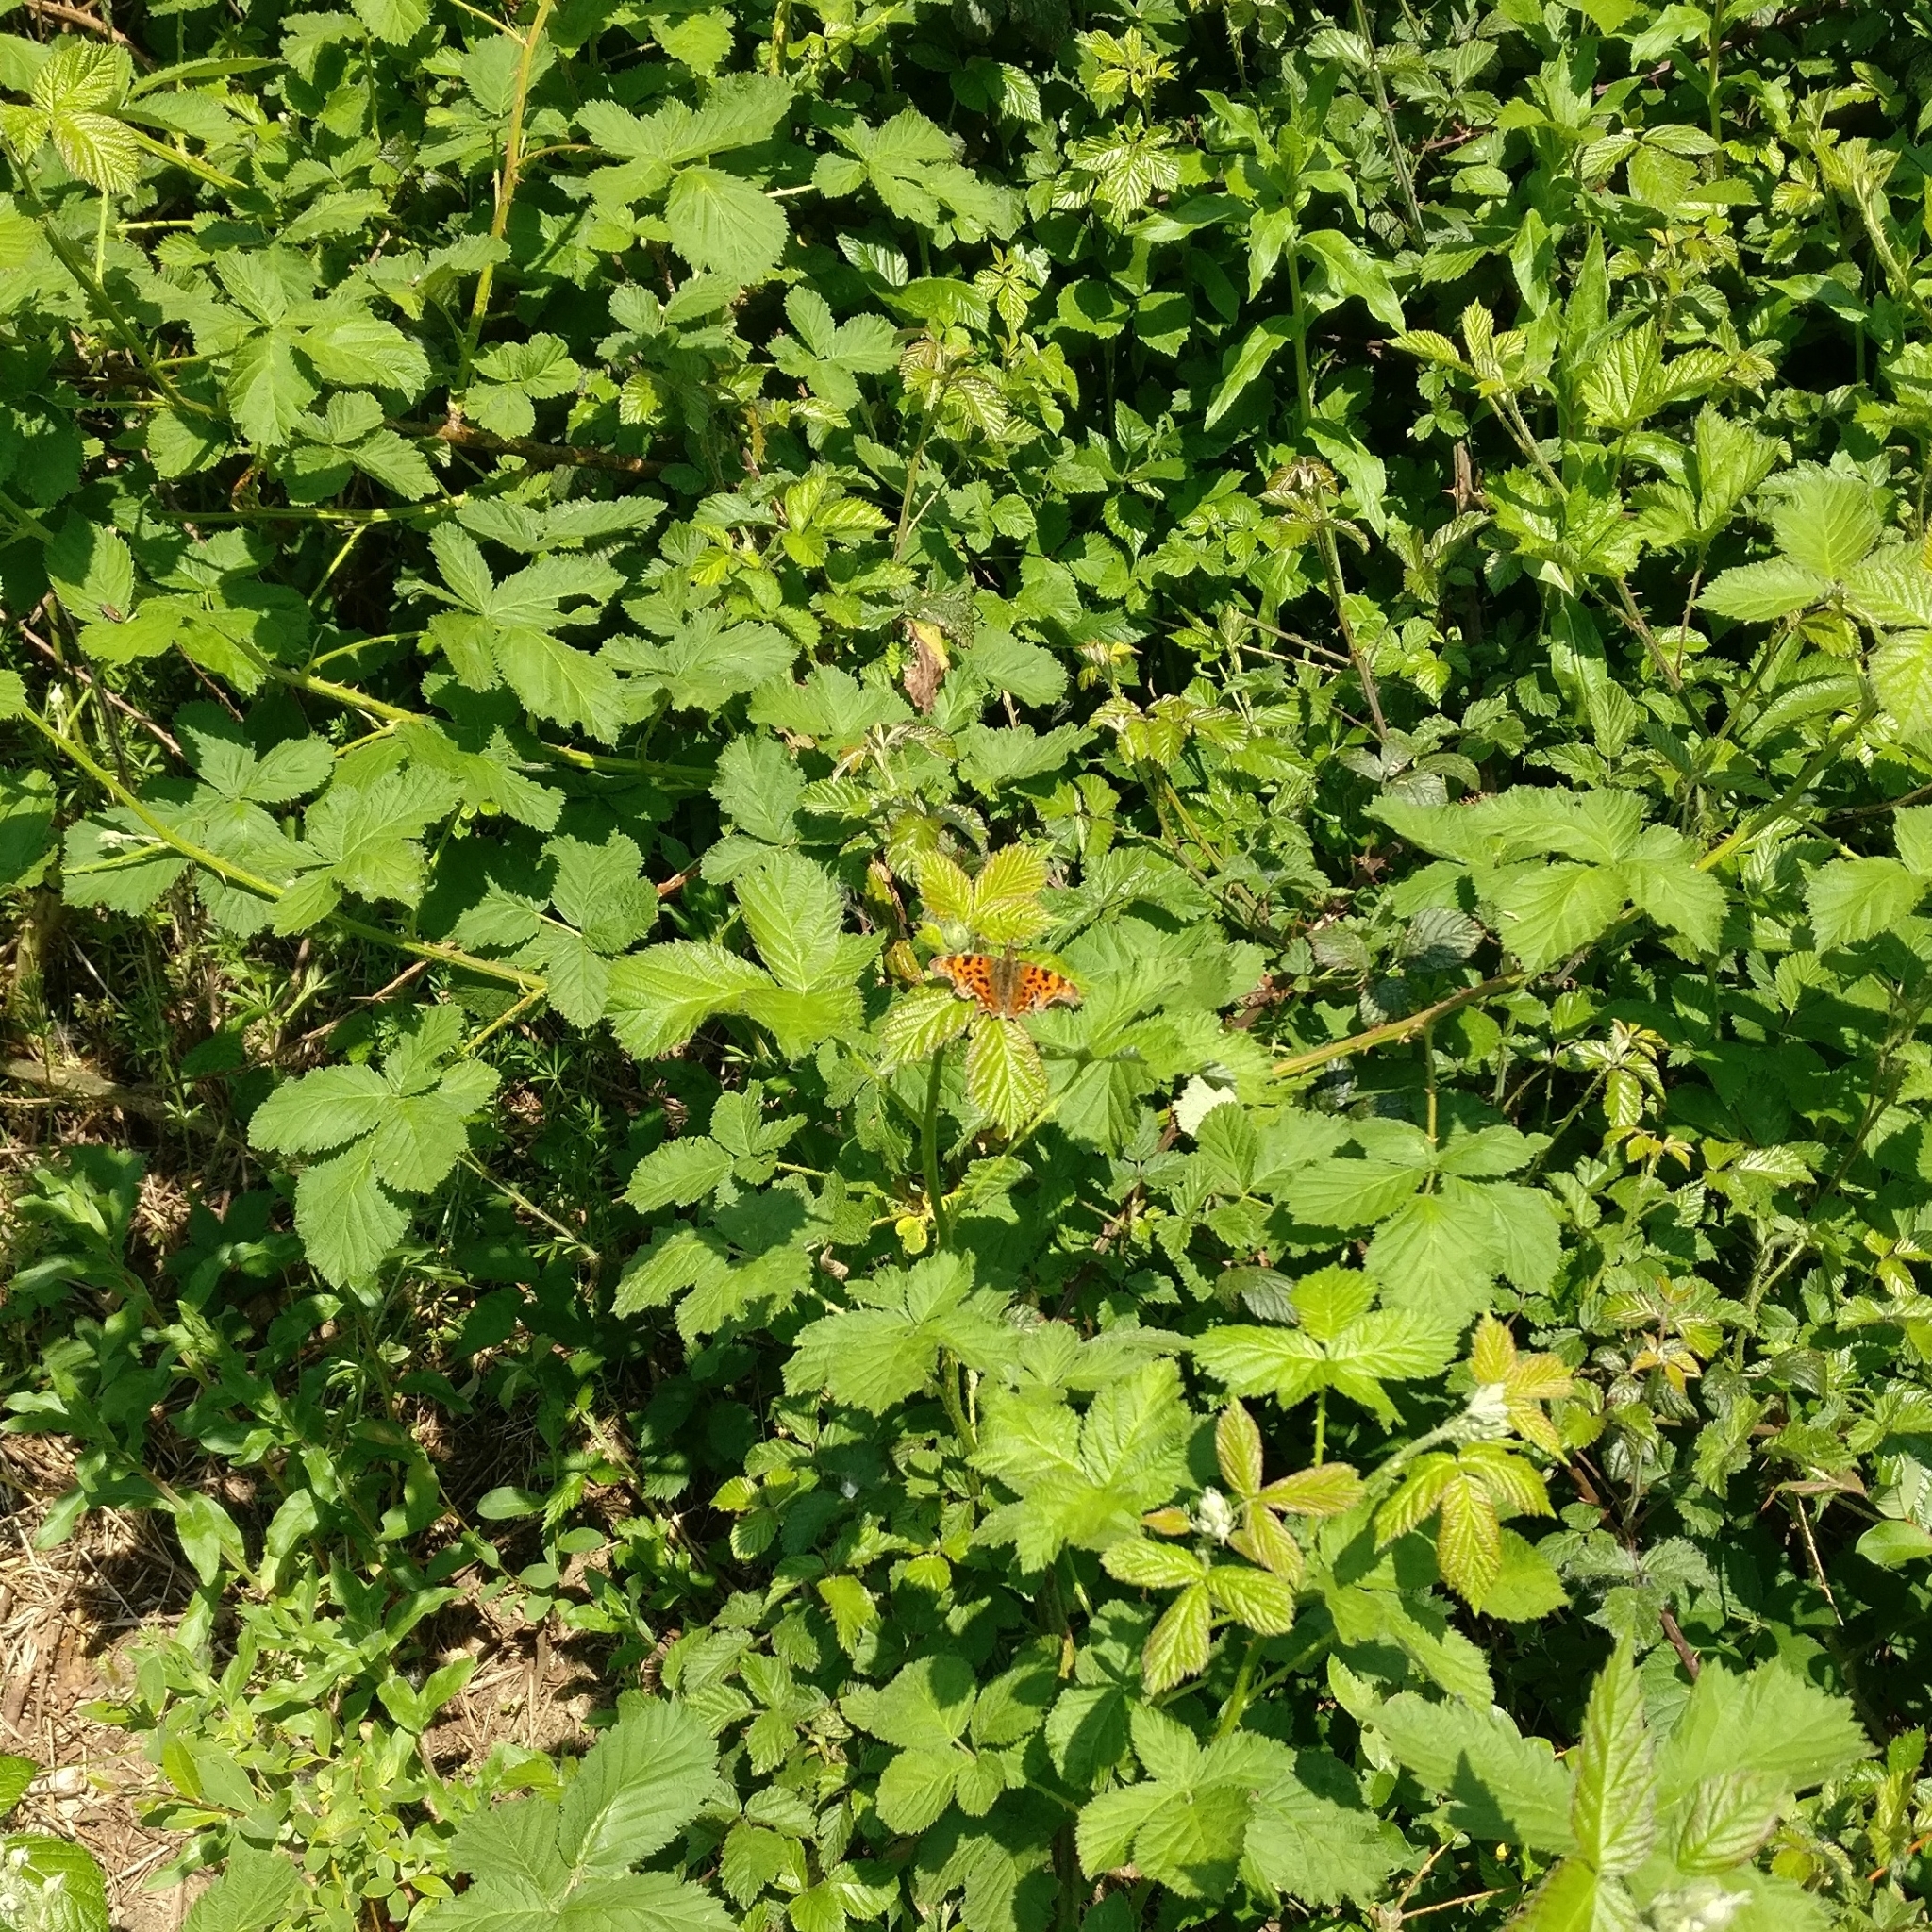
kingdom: Animalia
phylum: Arthropoda
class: Insecta
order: Lepidoptera
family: Nymphalidae
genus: Polygonia
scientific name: Polygonia c-album
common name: Comma
